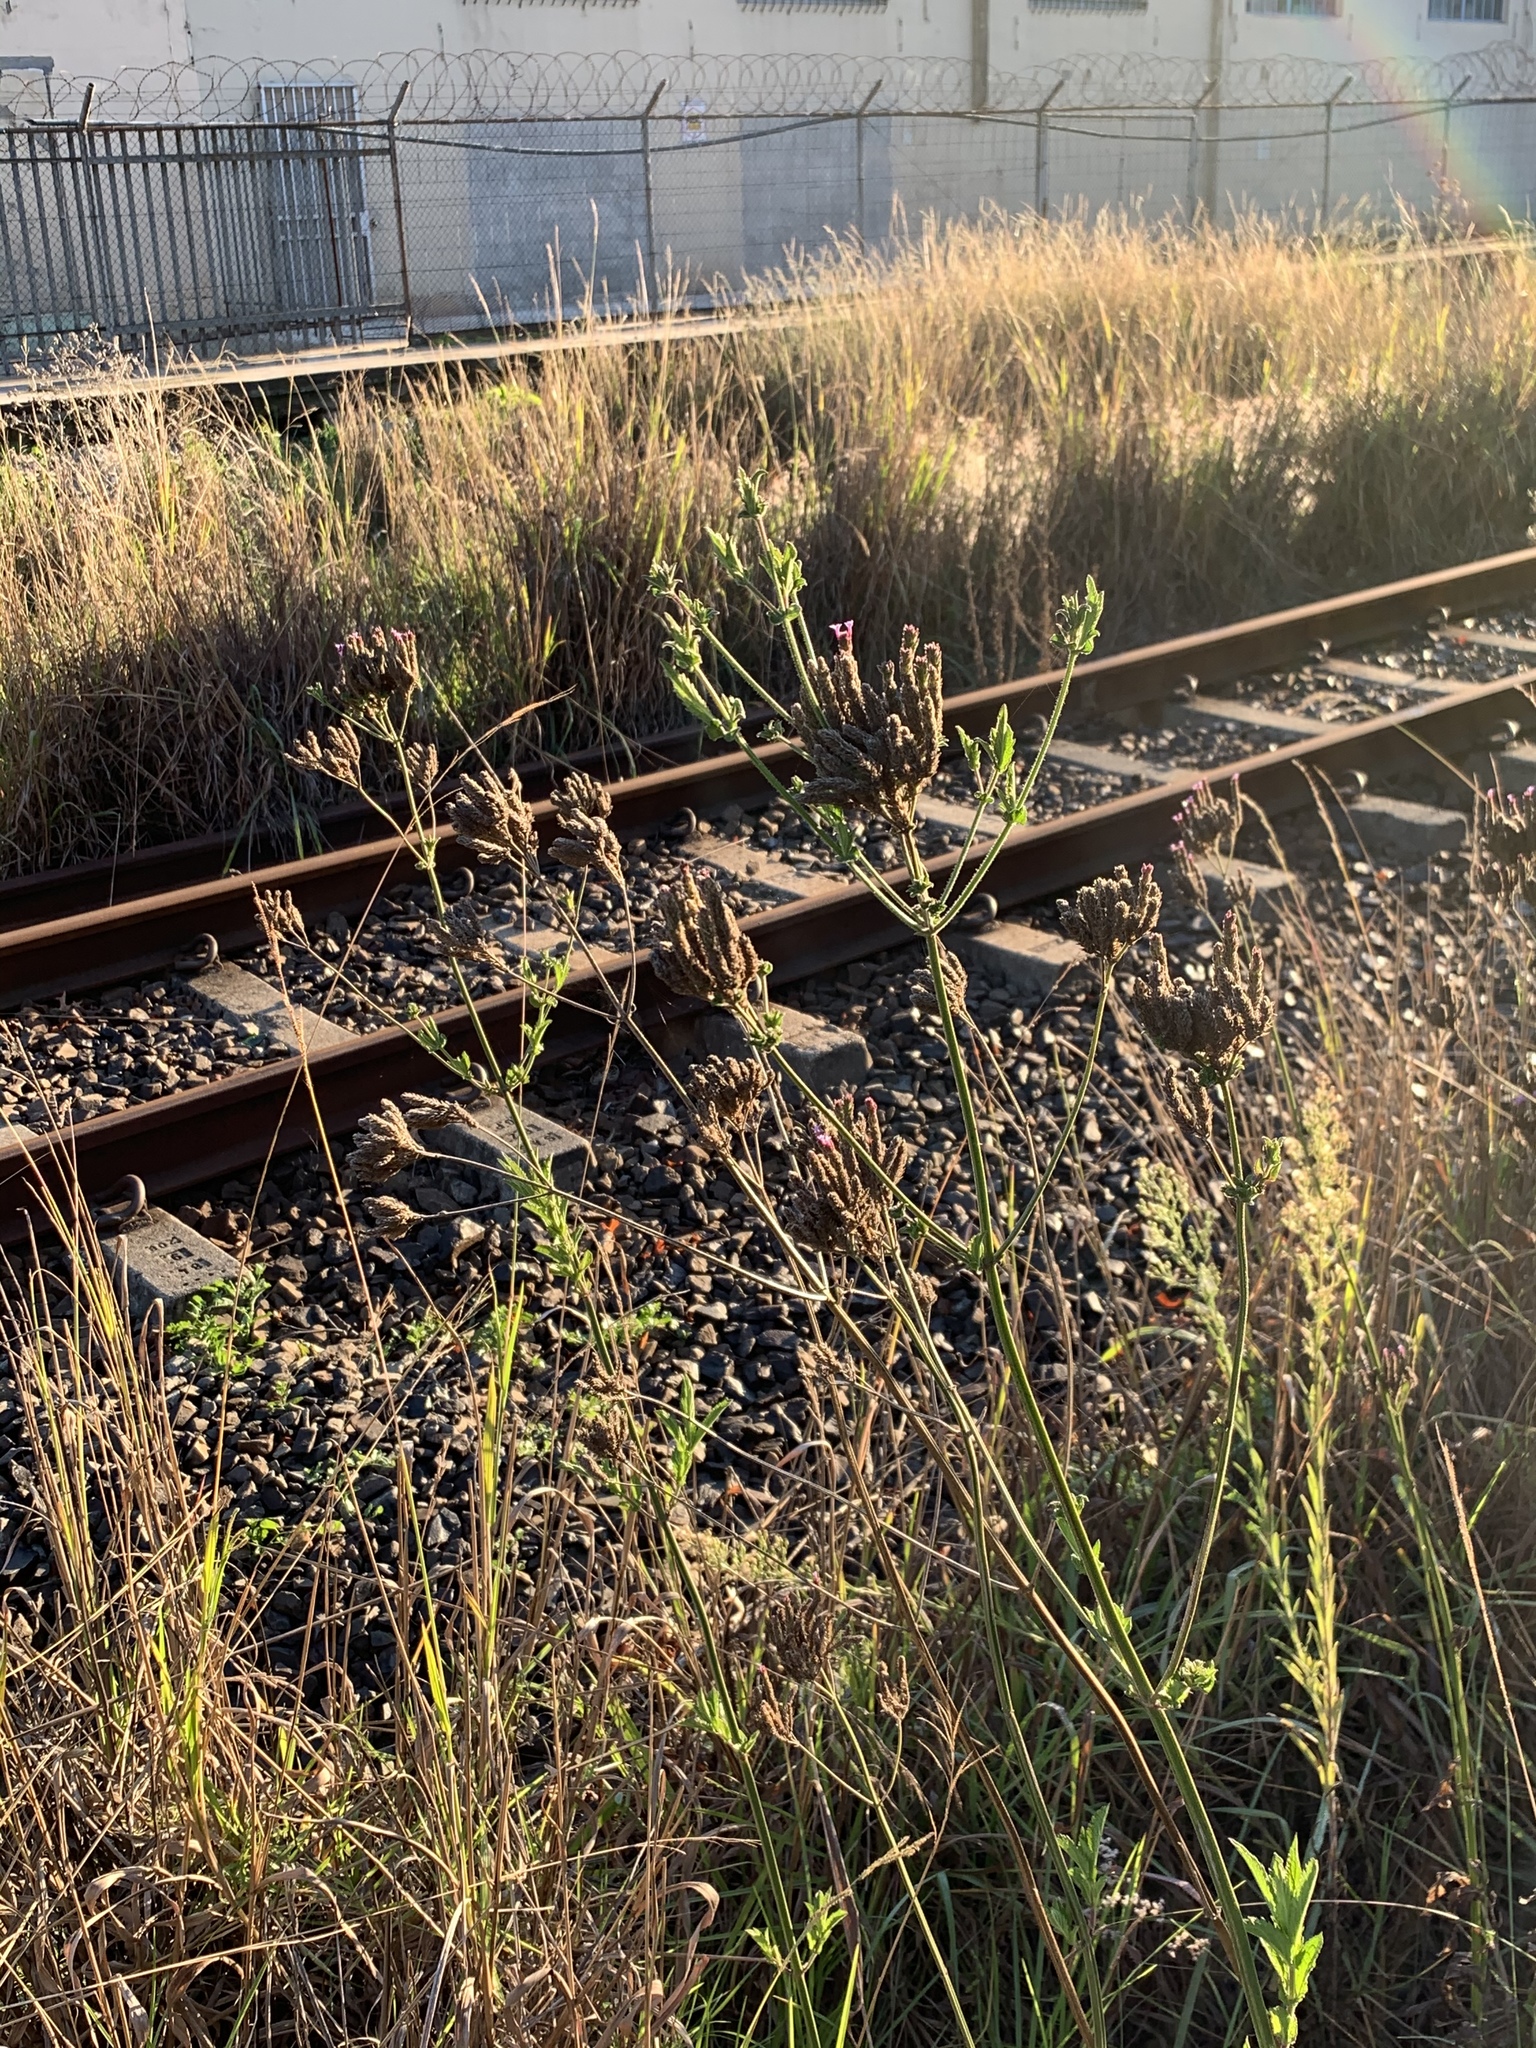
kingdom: Plantae
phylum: Tracheophyta
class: Magnoliopsida
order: Lamiales
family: Verbenaceae
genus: Verbena
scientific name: Verbena bonariensis
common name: Purpletop vervain
